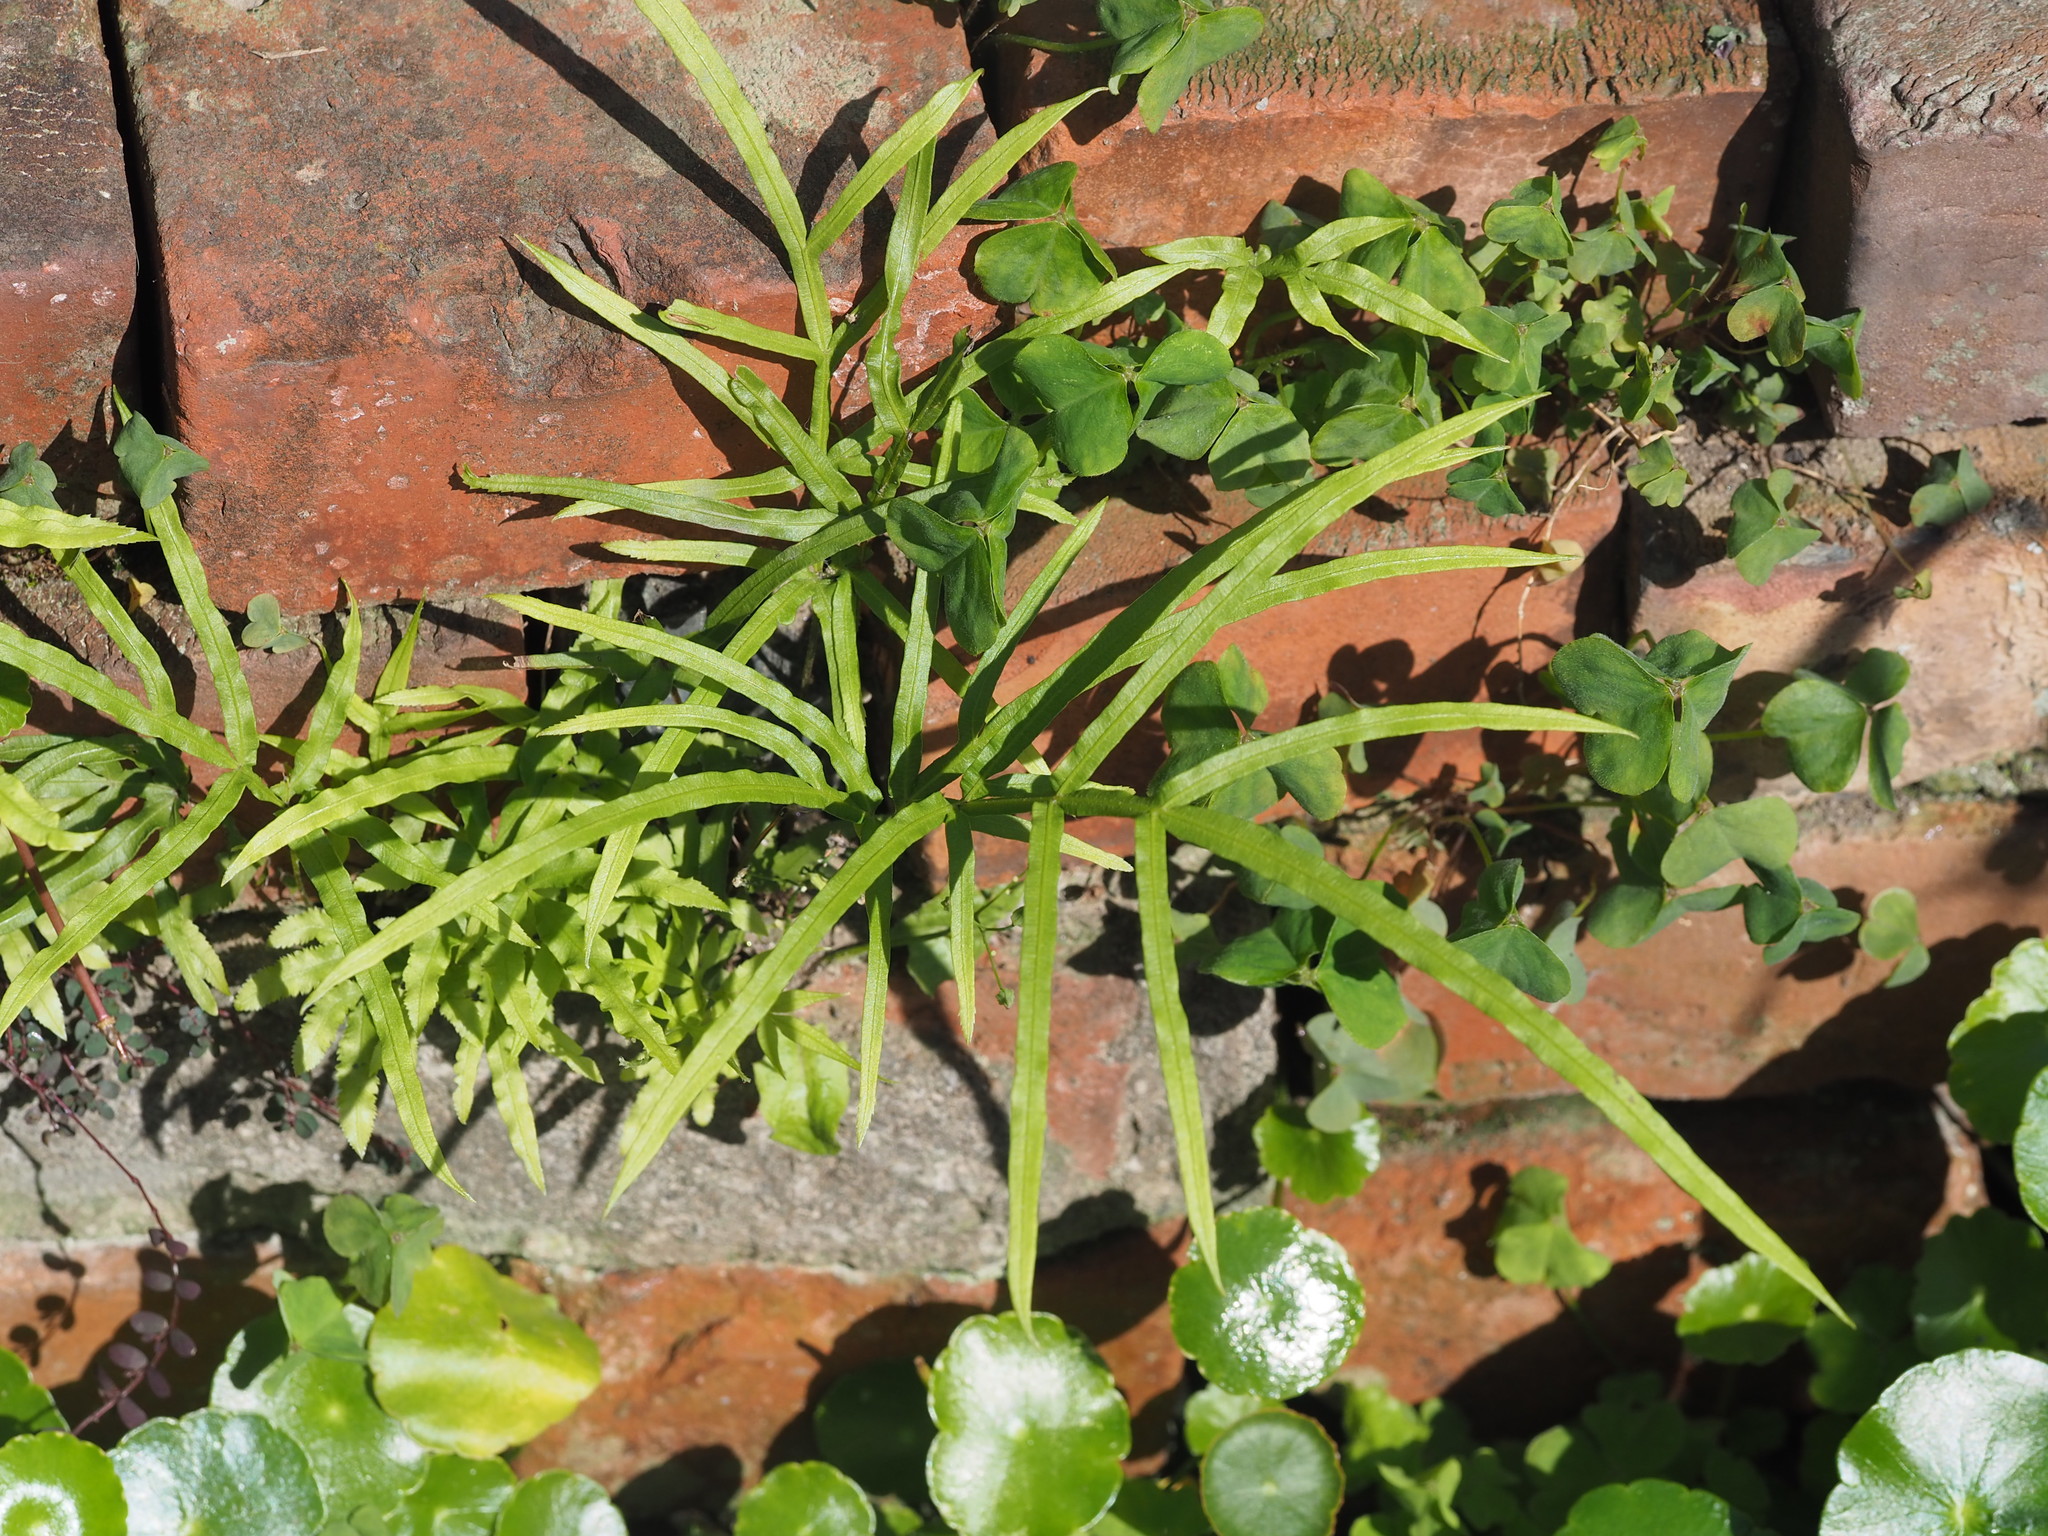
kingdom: Plantae
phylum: Tracheophyta
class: Polypodiopsida
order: Polypodiales
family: Pteridaceae
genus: Pteris
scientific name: Pteris multifida
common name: Spider brake
